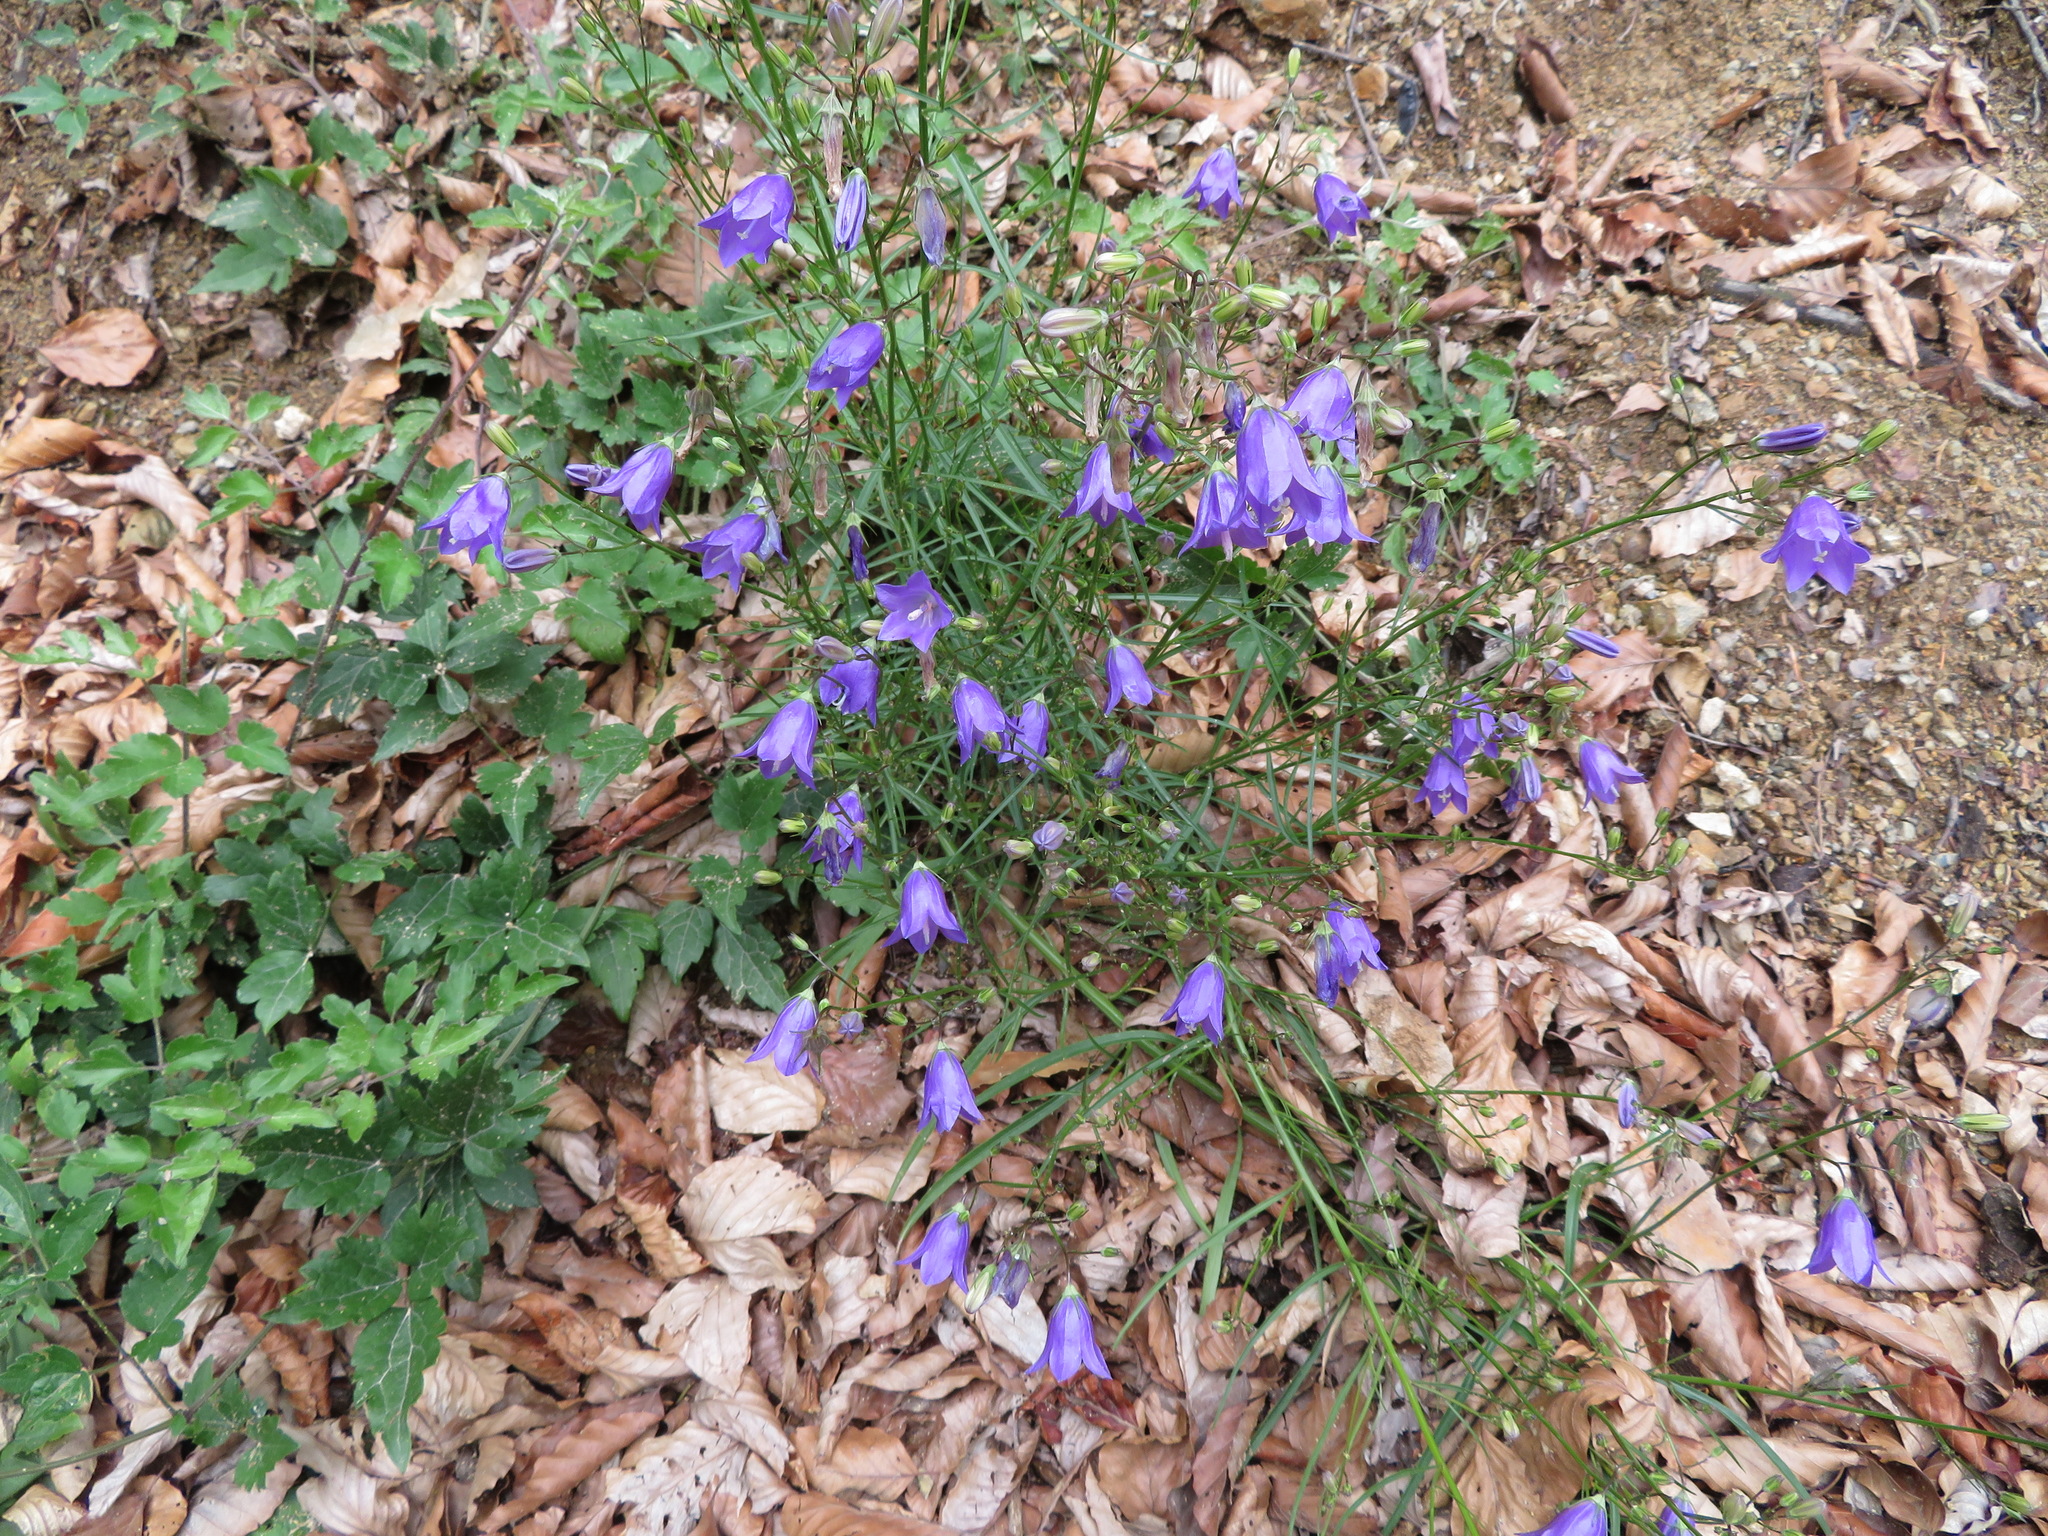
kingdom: Plantae
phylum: Tracheophyta
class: Magnoliopsida
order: Asterales
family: Campanulaceae
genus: Campanula
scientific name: Campanula rotundifolia
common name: Harebell
